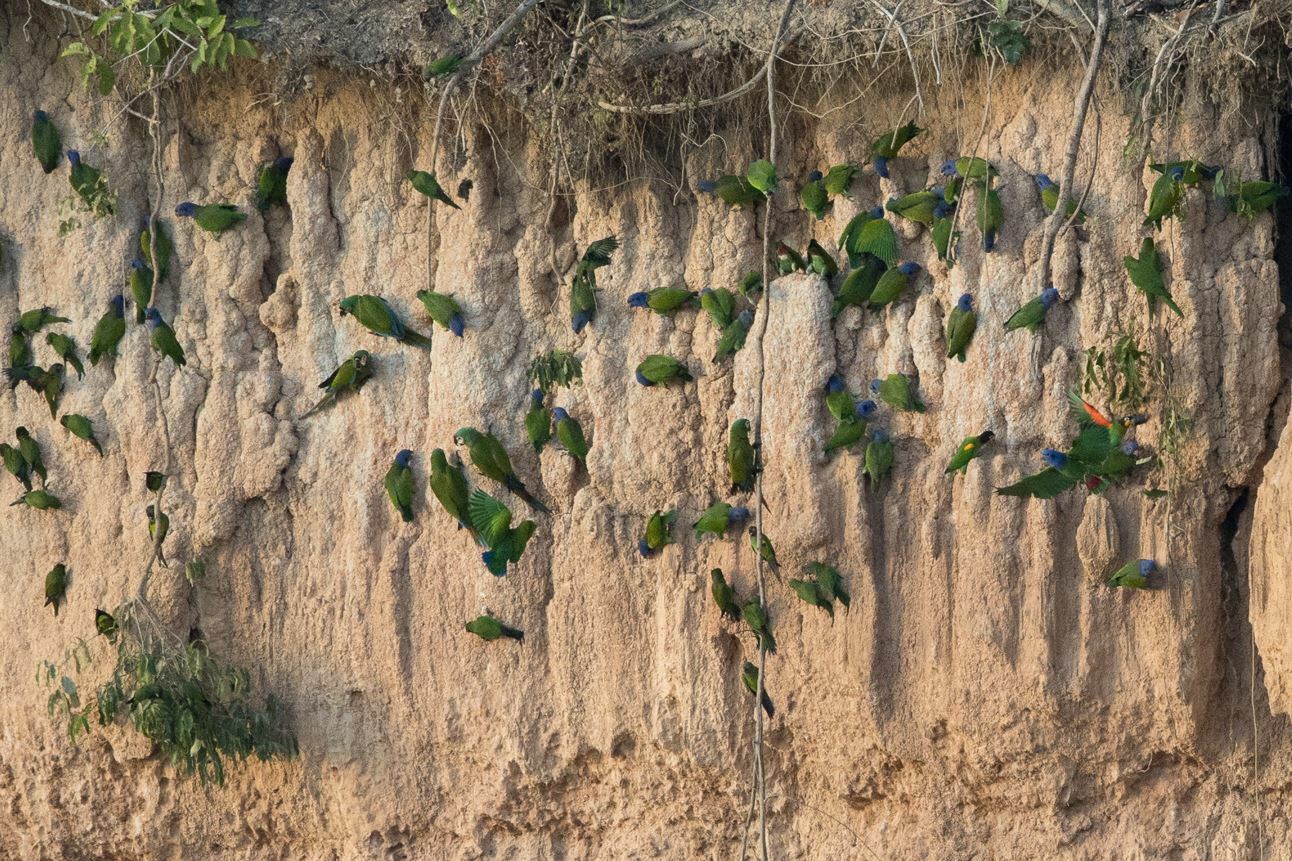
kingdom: Animalia
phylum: Chordata
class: Aves
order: Psittaciformes
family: Psittacidae
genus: Pionopsitta
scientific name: Pionopsitta barrabandi
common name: Orange-cheeked parrot
